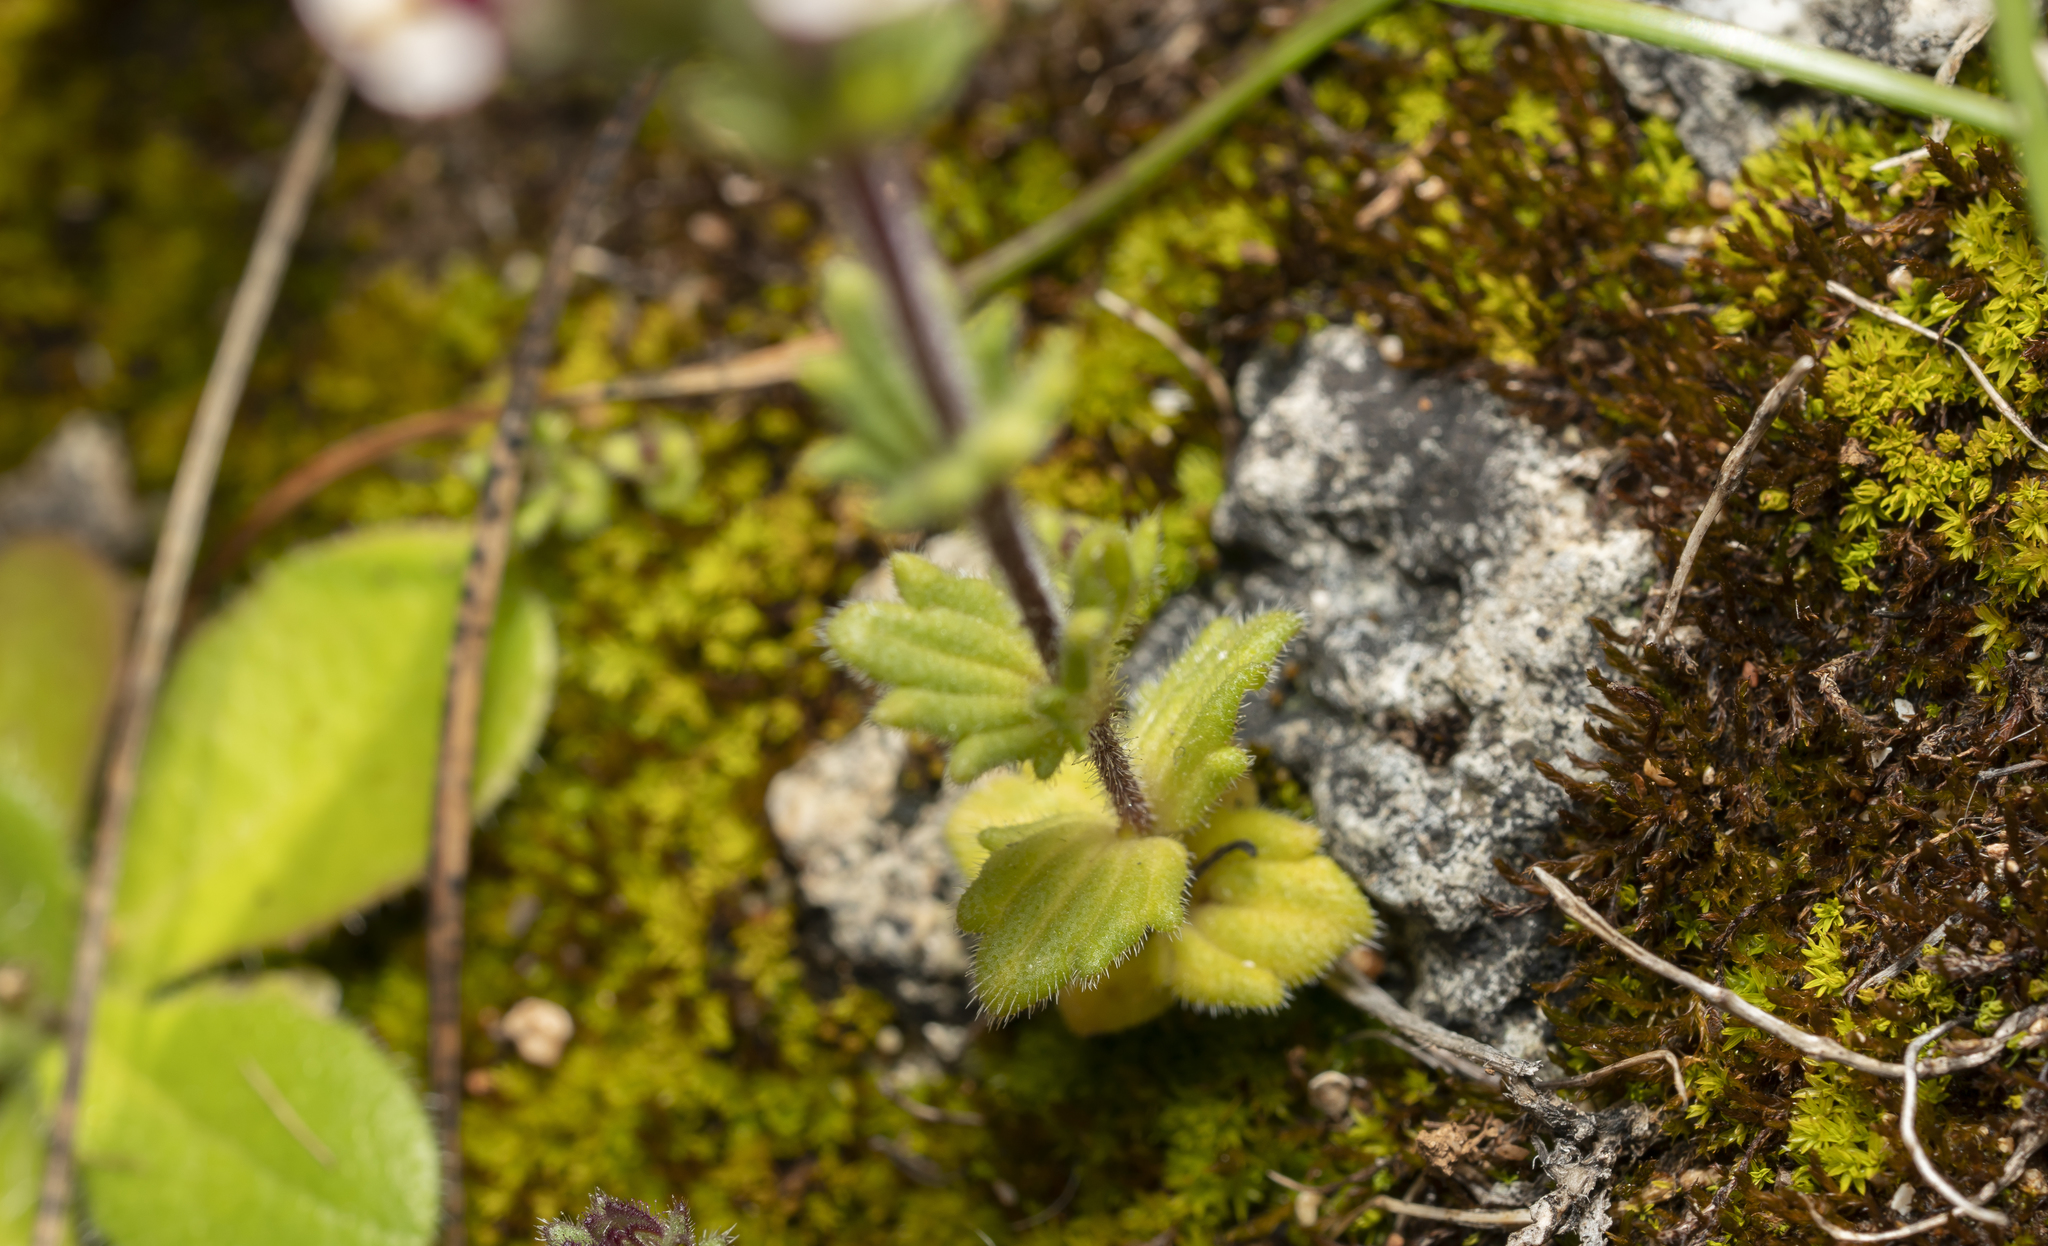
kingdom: Plantae
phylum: Tracheophyta
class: Magnoliopsida
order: Lamiales
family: Orobanchaceae
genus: Parentucellia
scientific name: Parentucellia latifolia
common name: Broadleaf glandweed
